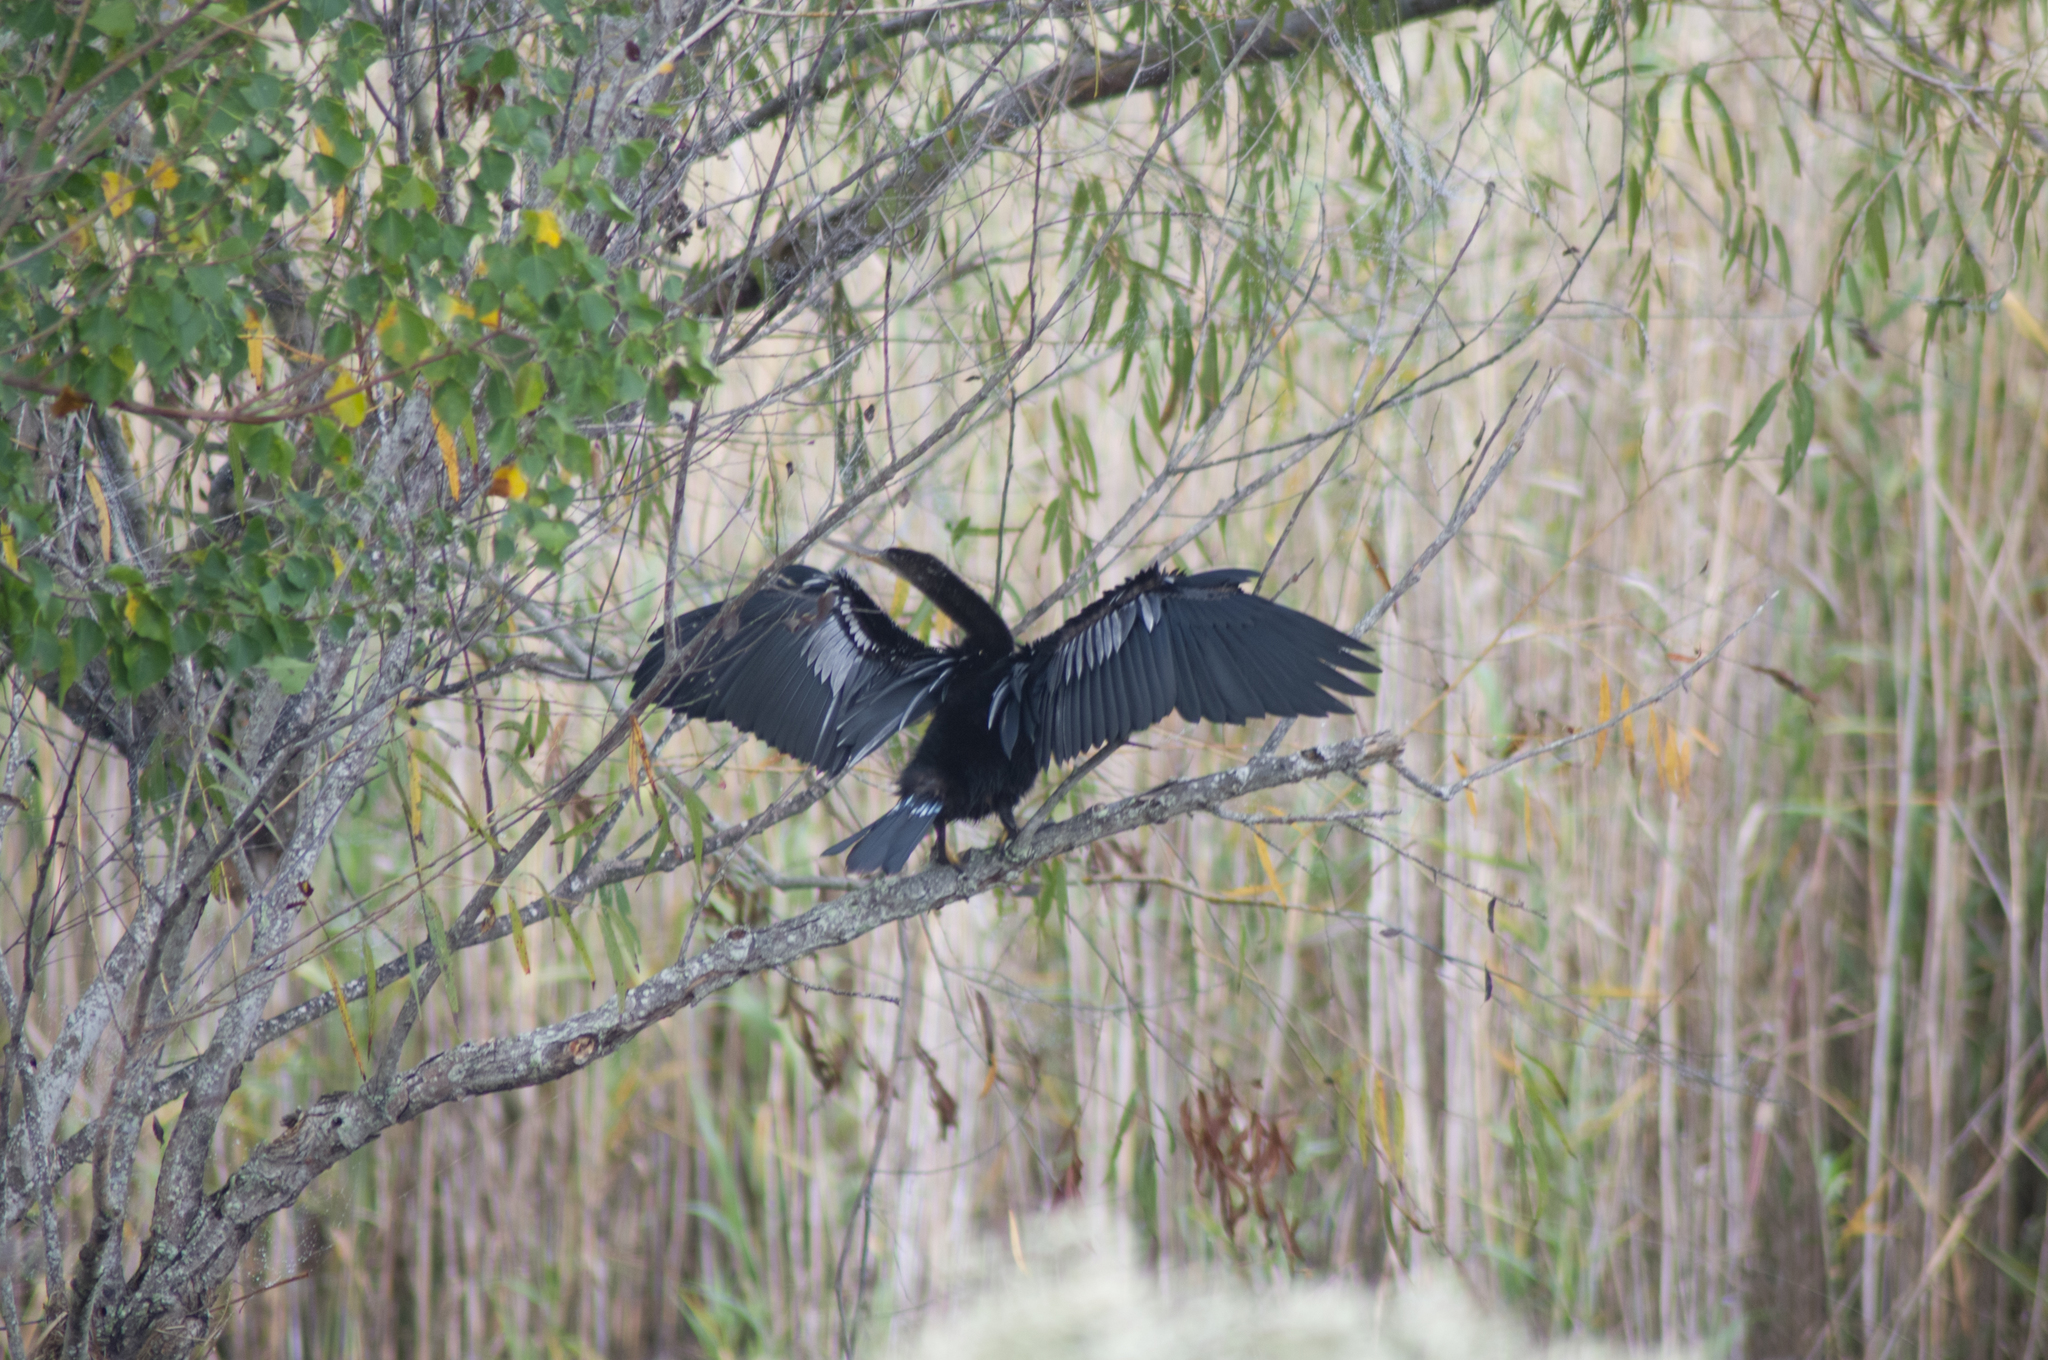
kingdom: Animalia
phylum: Chordata
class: Aves
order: Suliformes
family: Anhingidae
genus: Anhinga
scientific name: Anhinga anhinga
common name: Anhinga
